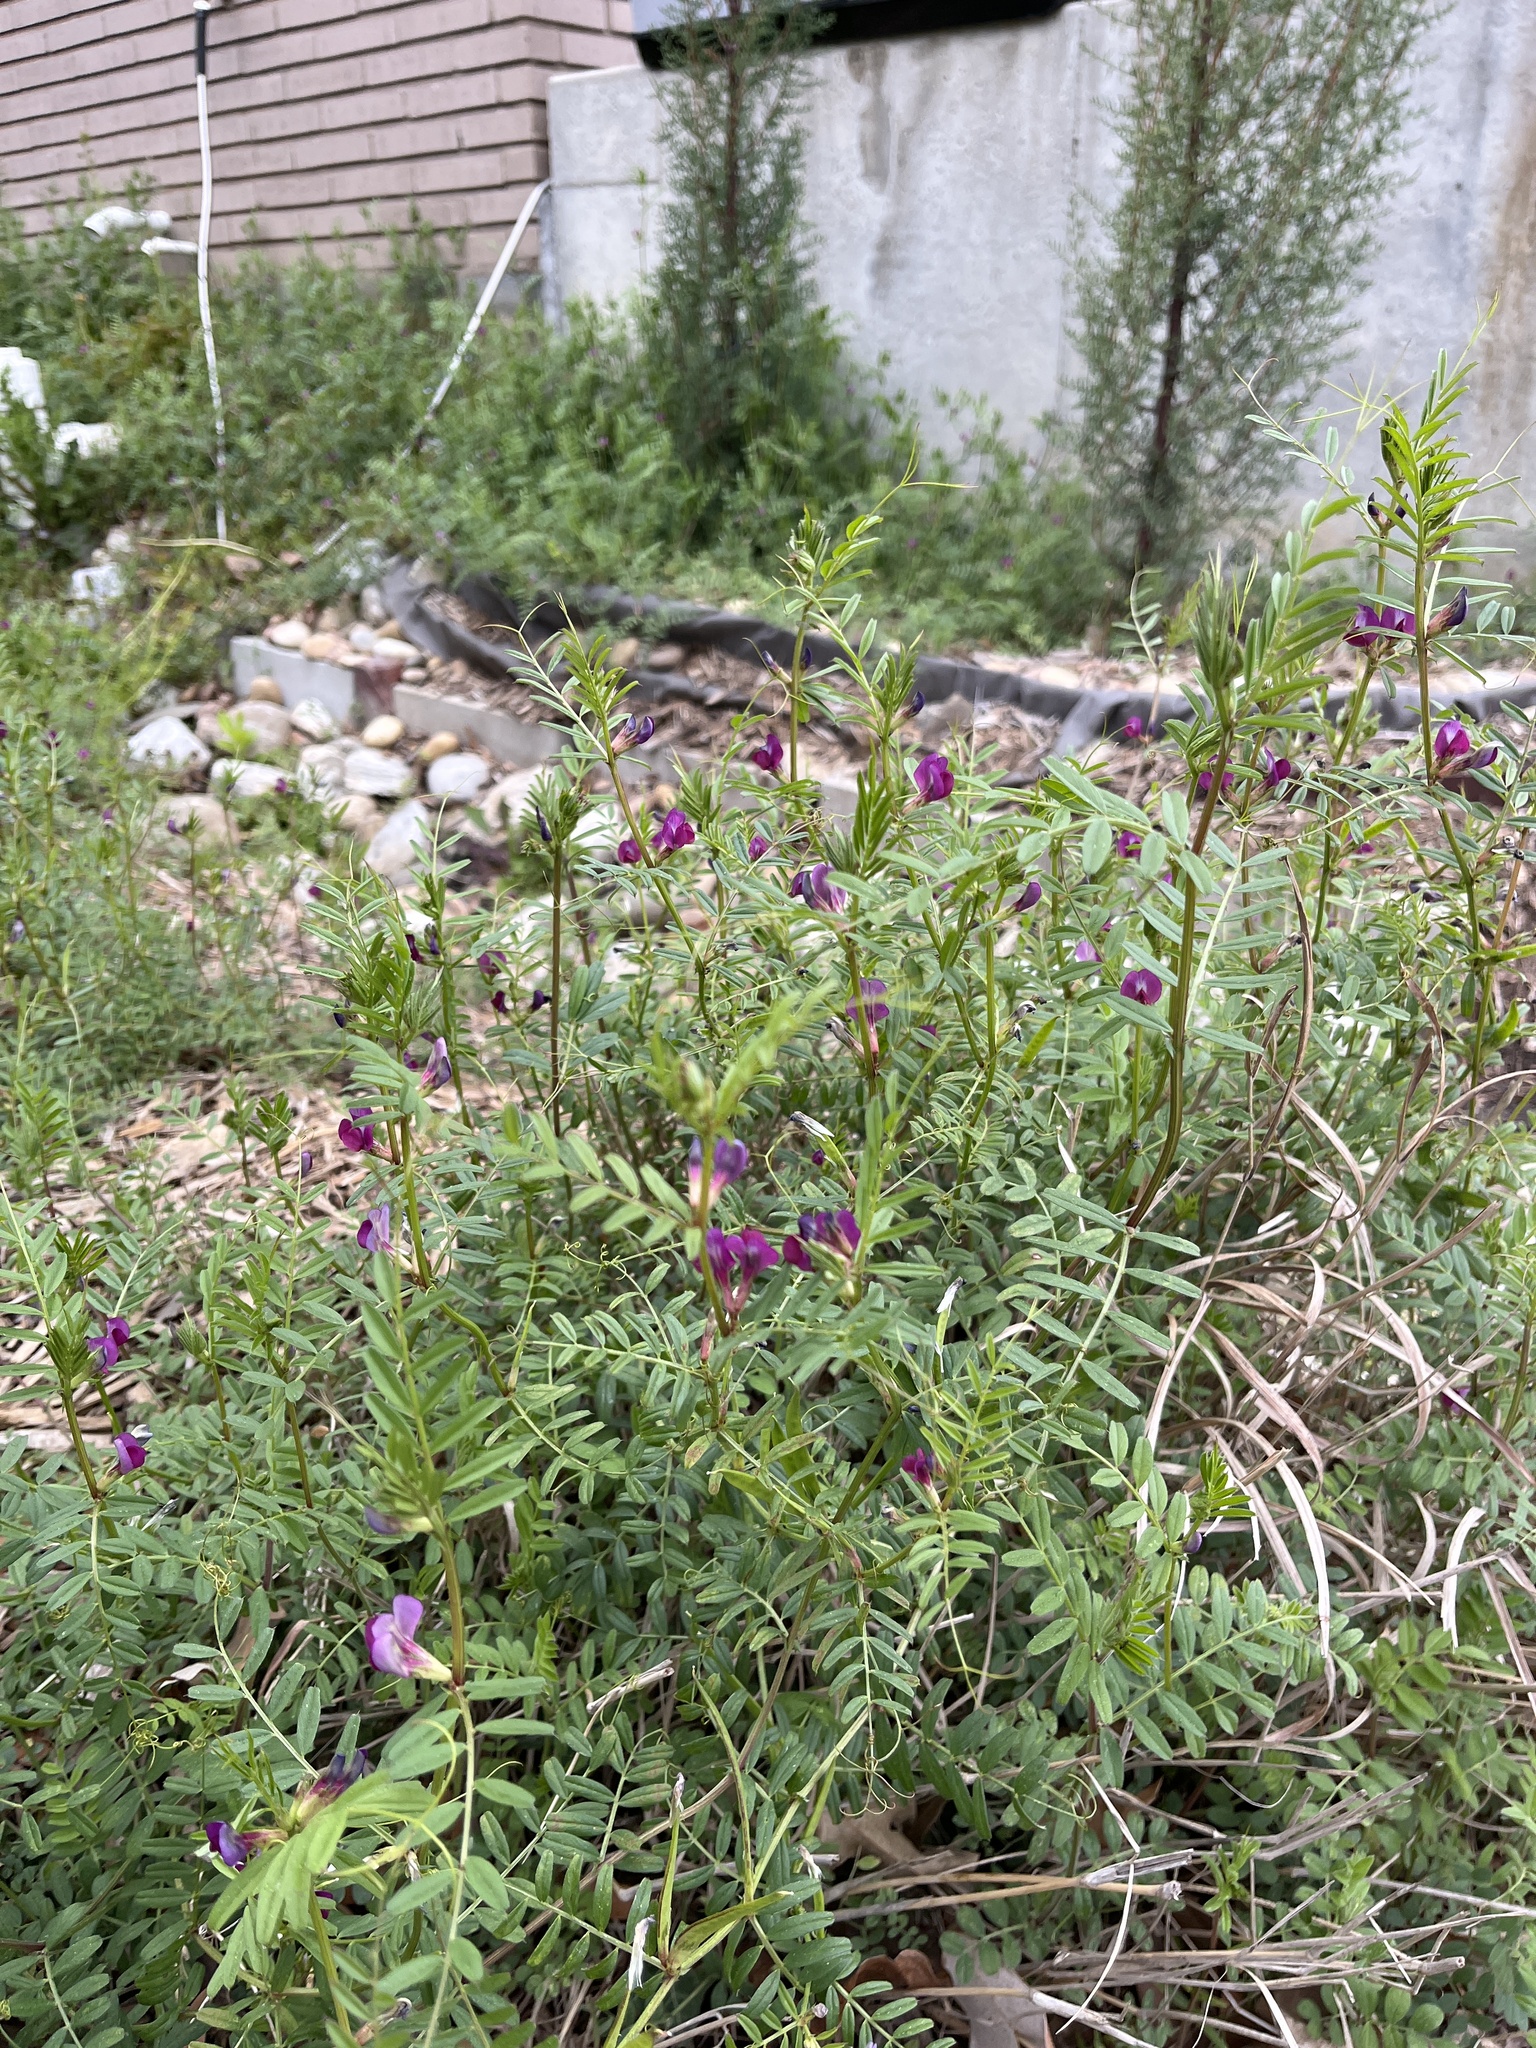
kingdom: Plantae
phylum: Tracheophyta
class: Magnoliopsida
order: Fabales
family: Fabaceae
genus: Vicia
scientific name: Vicia sativa
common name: Garden vetch
